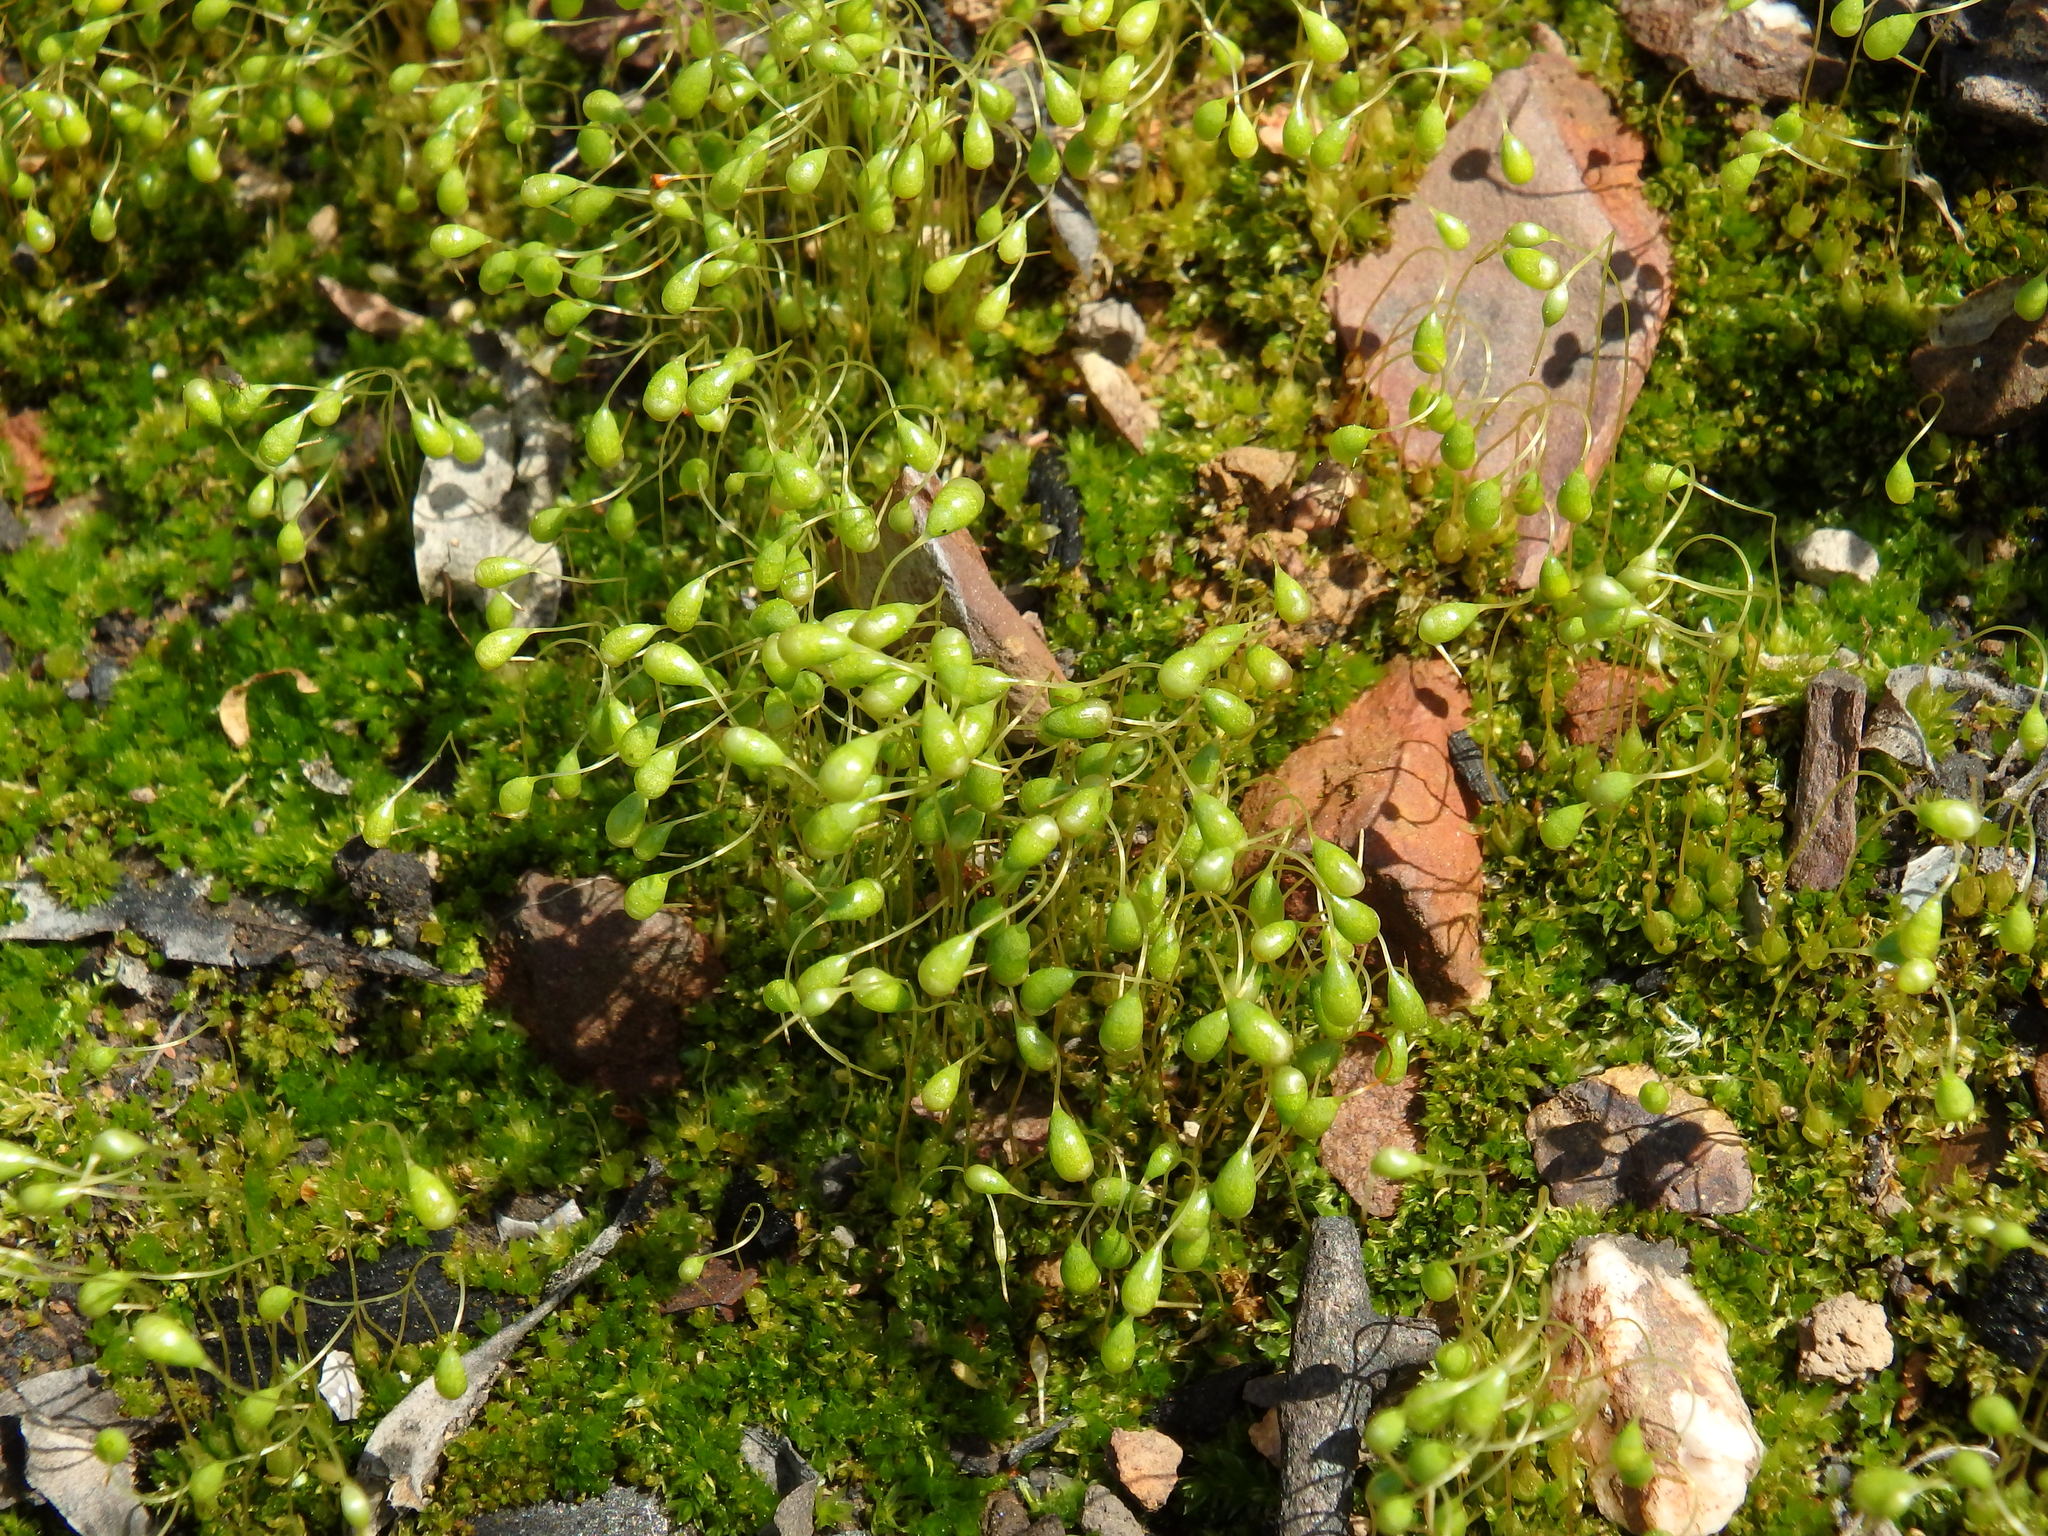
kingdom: Plantae
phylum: Bryophyta
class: Bryopsida
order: Funariales
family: Funariaceae
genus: Funaria
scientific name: Funaria hygrometrica
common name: Common cord moss
